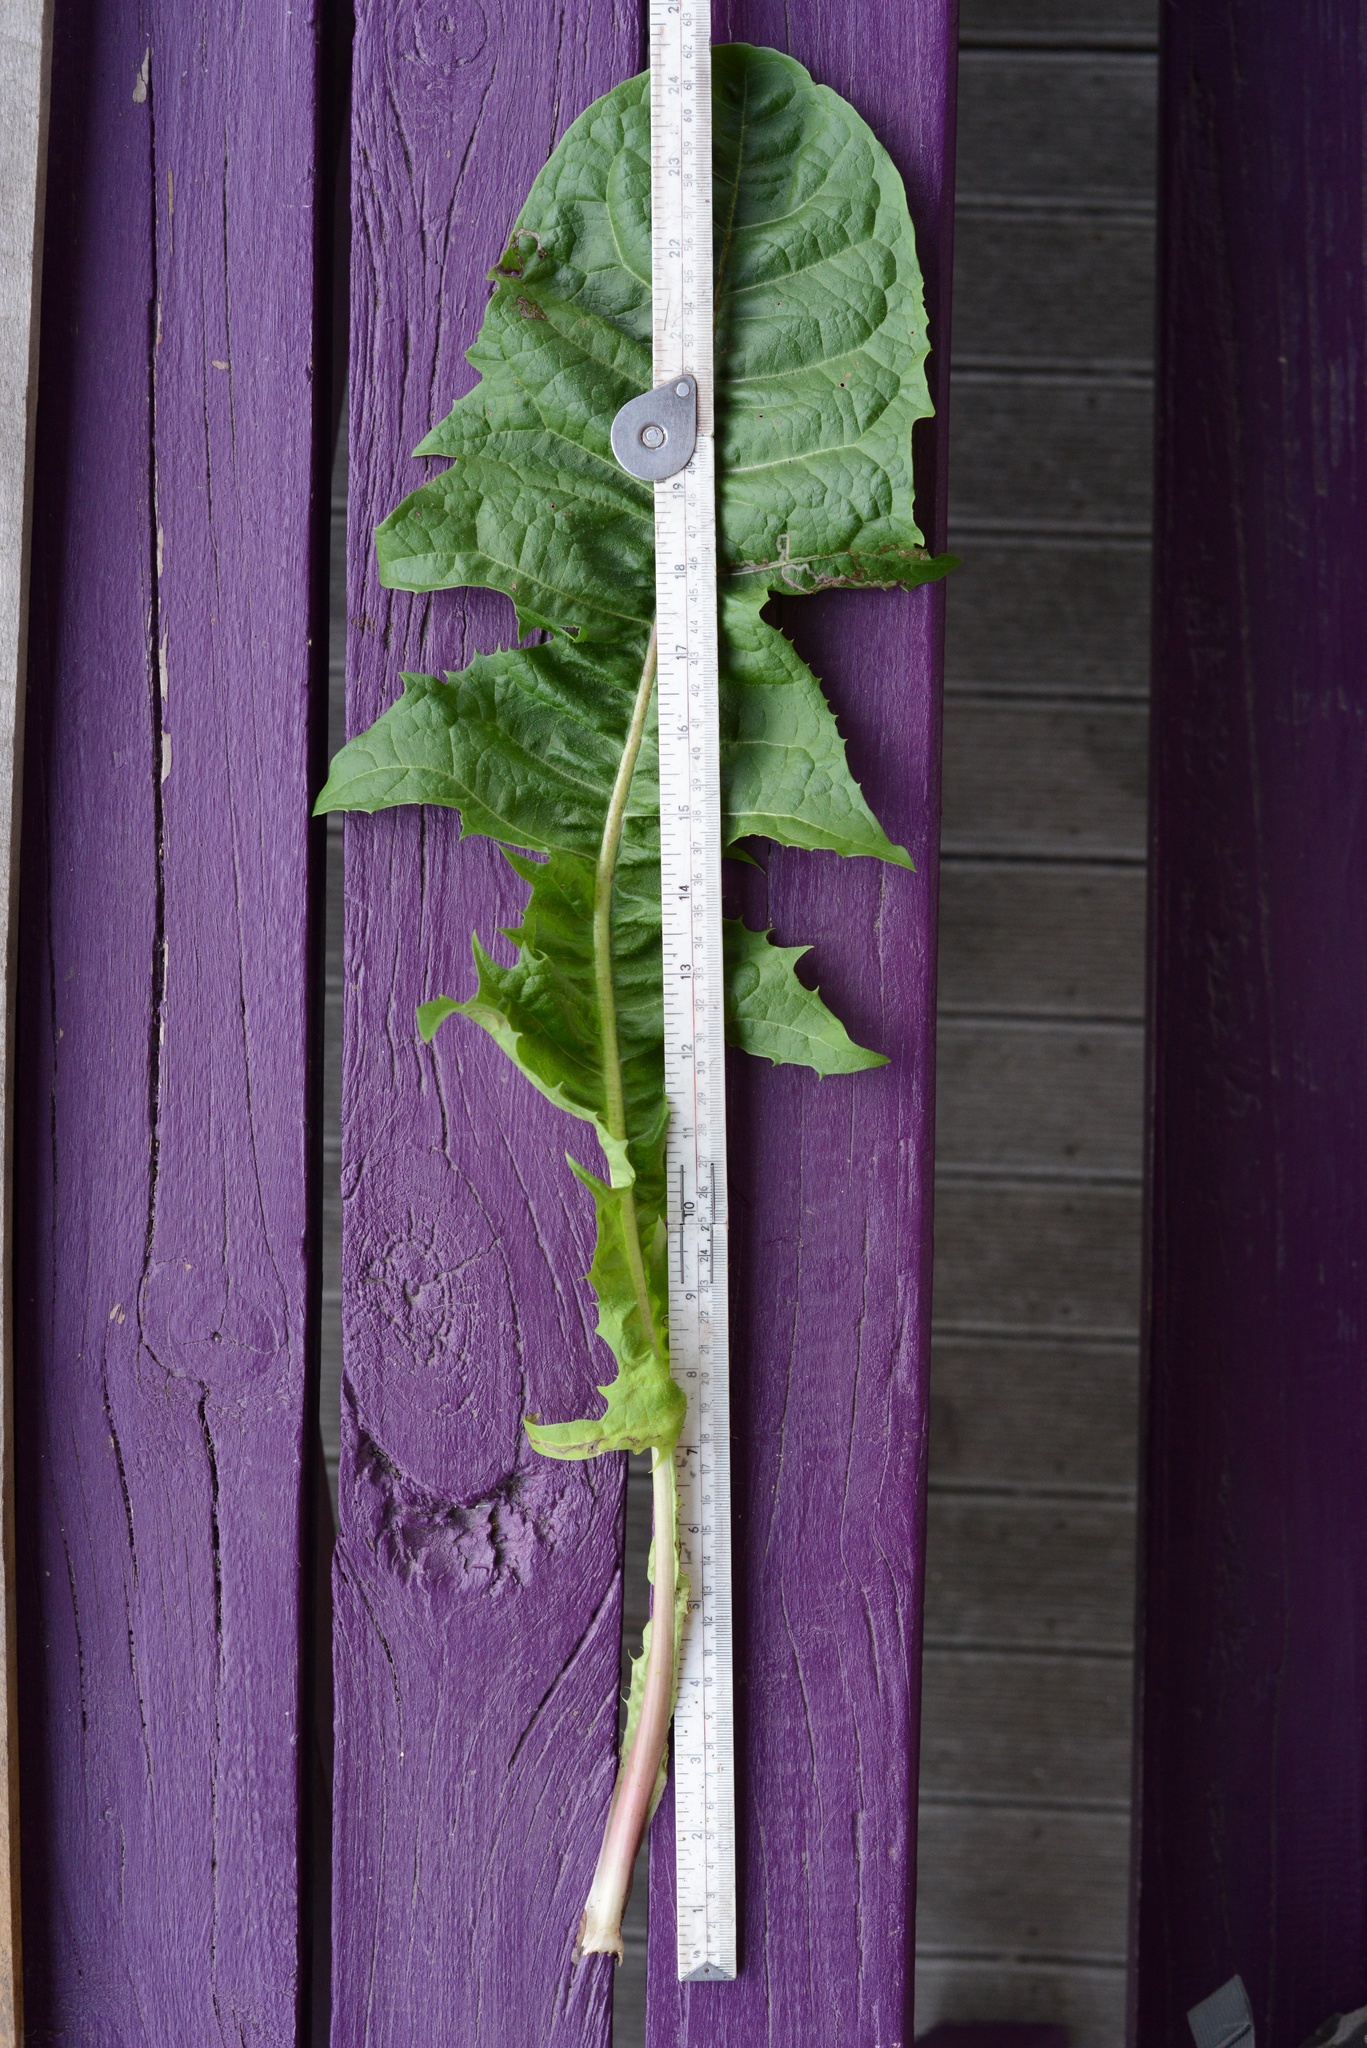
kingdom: Plantae
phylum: Tracheophyta
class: Magnoliopsida
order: Asterales
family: Asteraceae
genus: Taraxacum
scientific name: Taraxacum officinale
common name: Common dandelion
